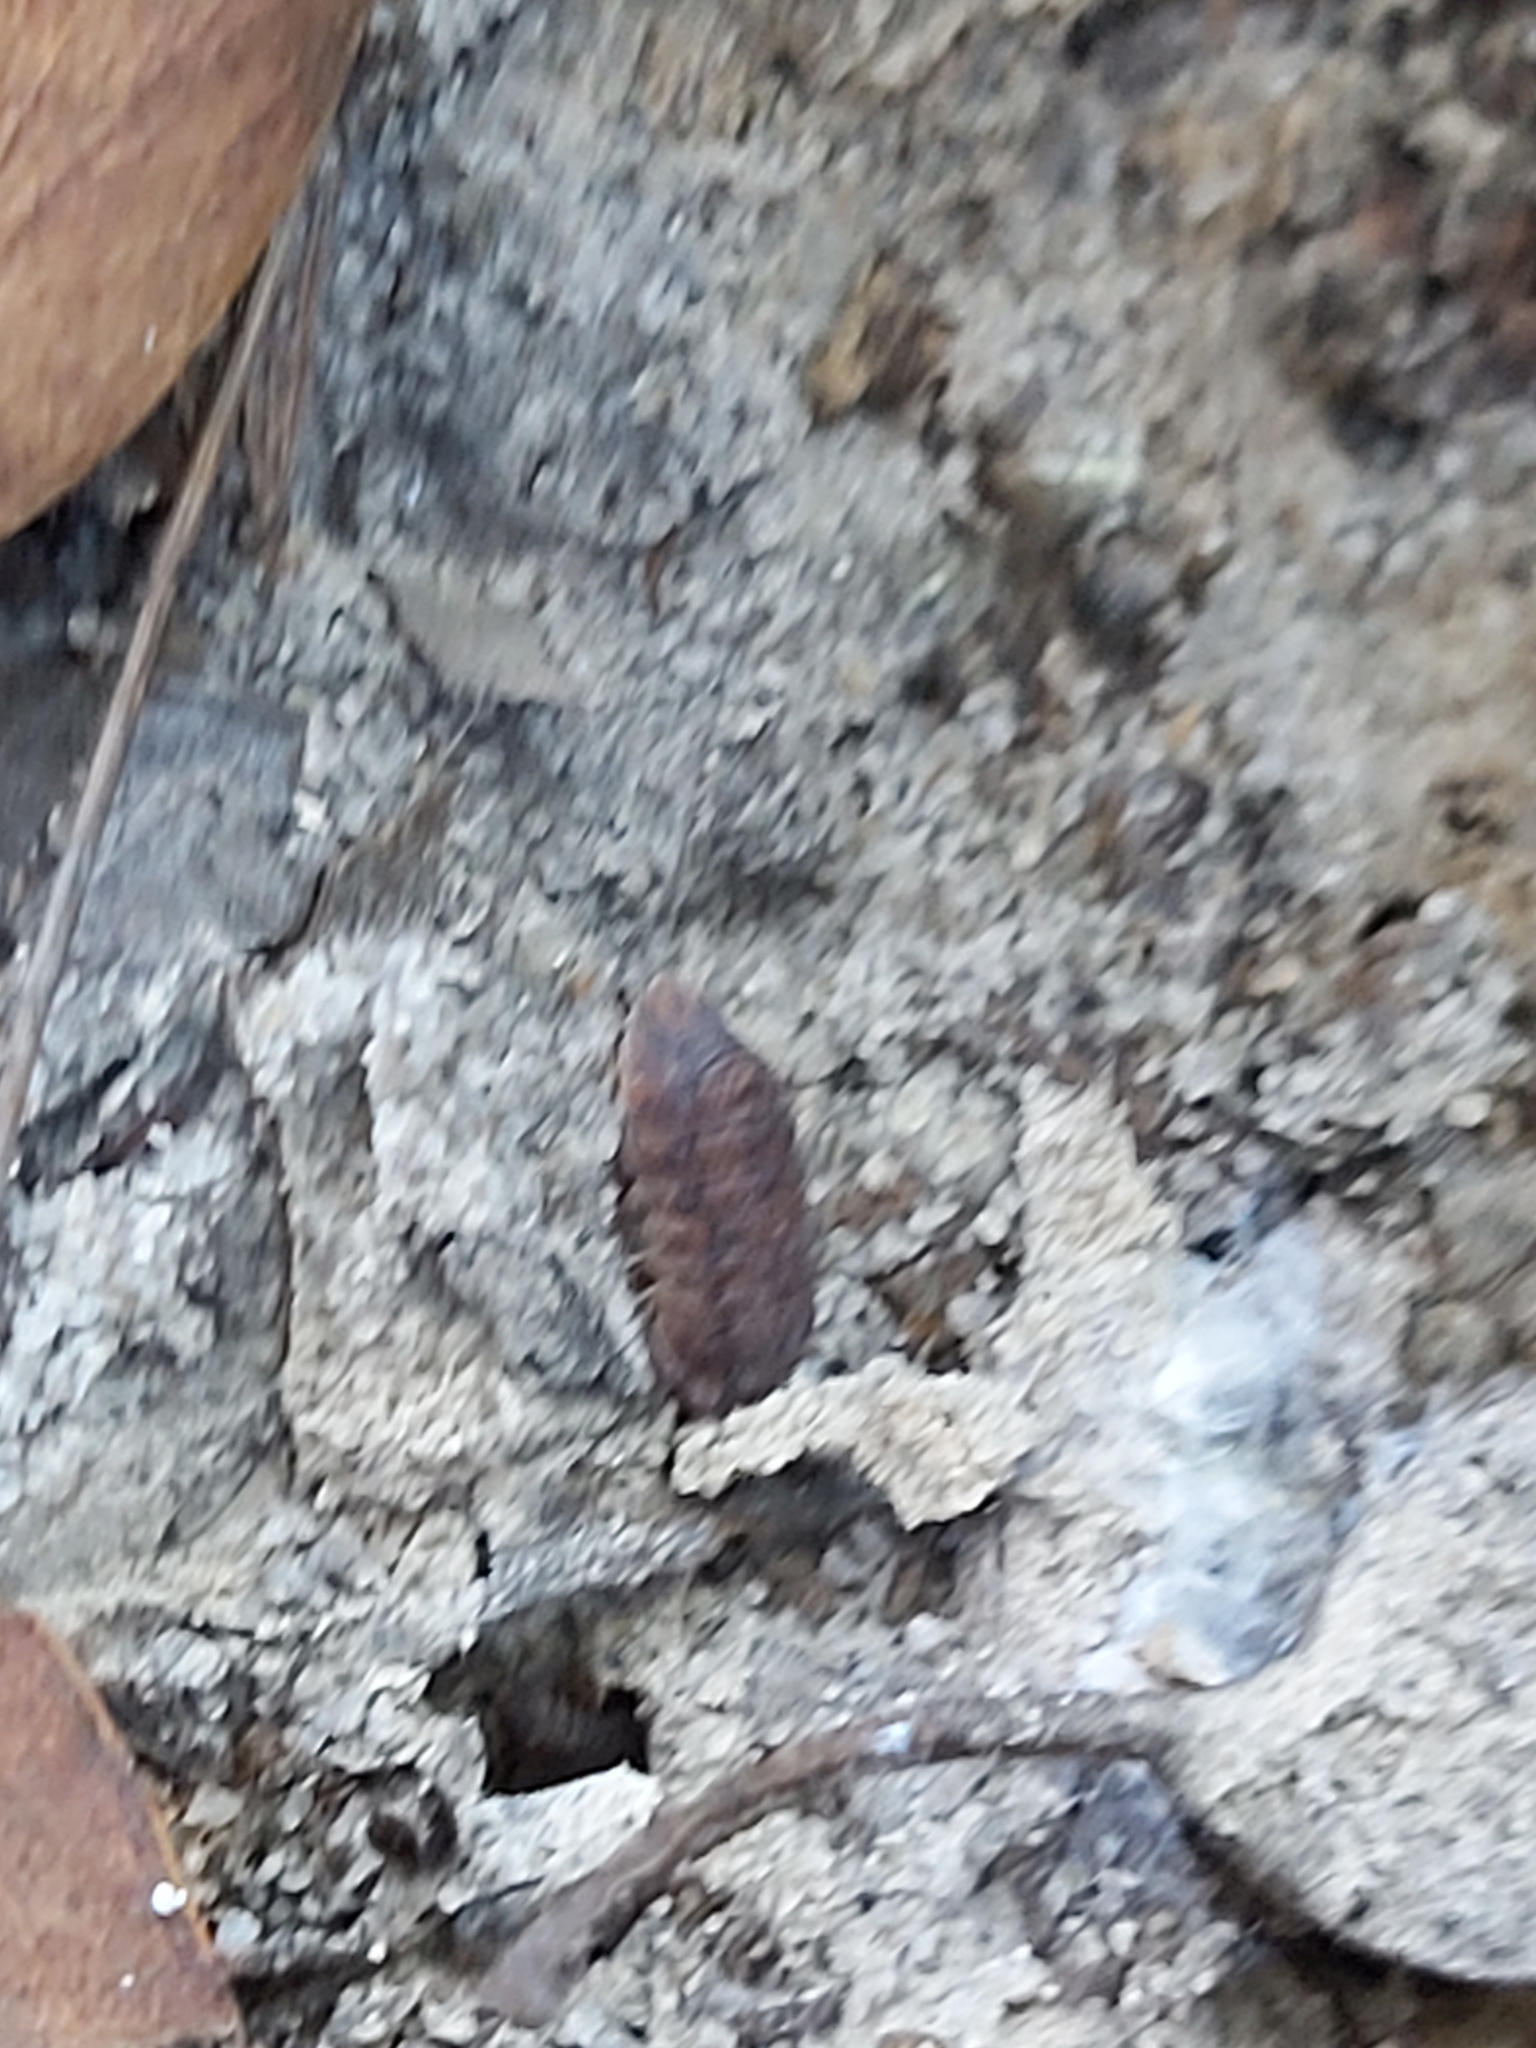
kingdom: Animalia
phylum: Arthropoda
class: Malacostraca
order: Isopoda
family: Armadillidae
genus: Merulana
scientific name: Merulana helmsiana
